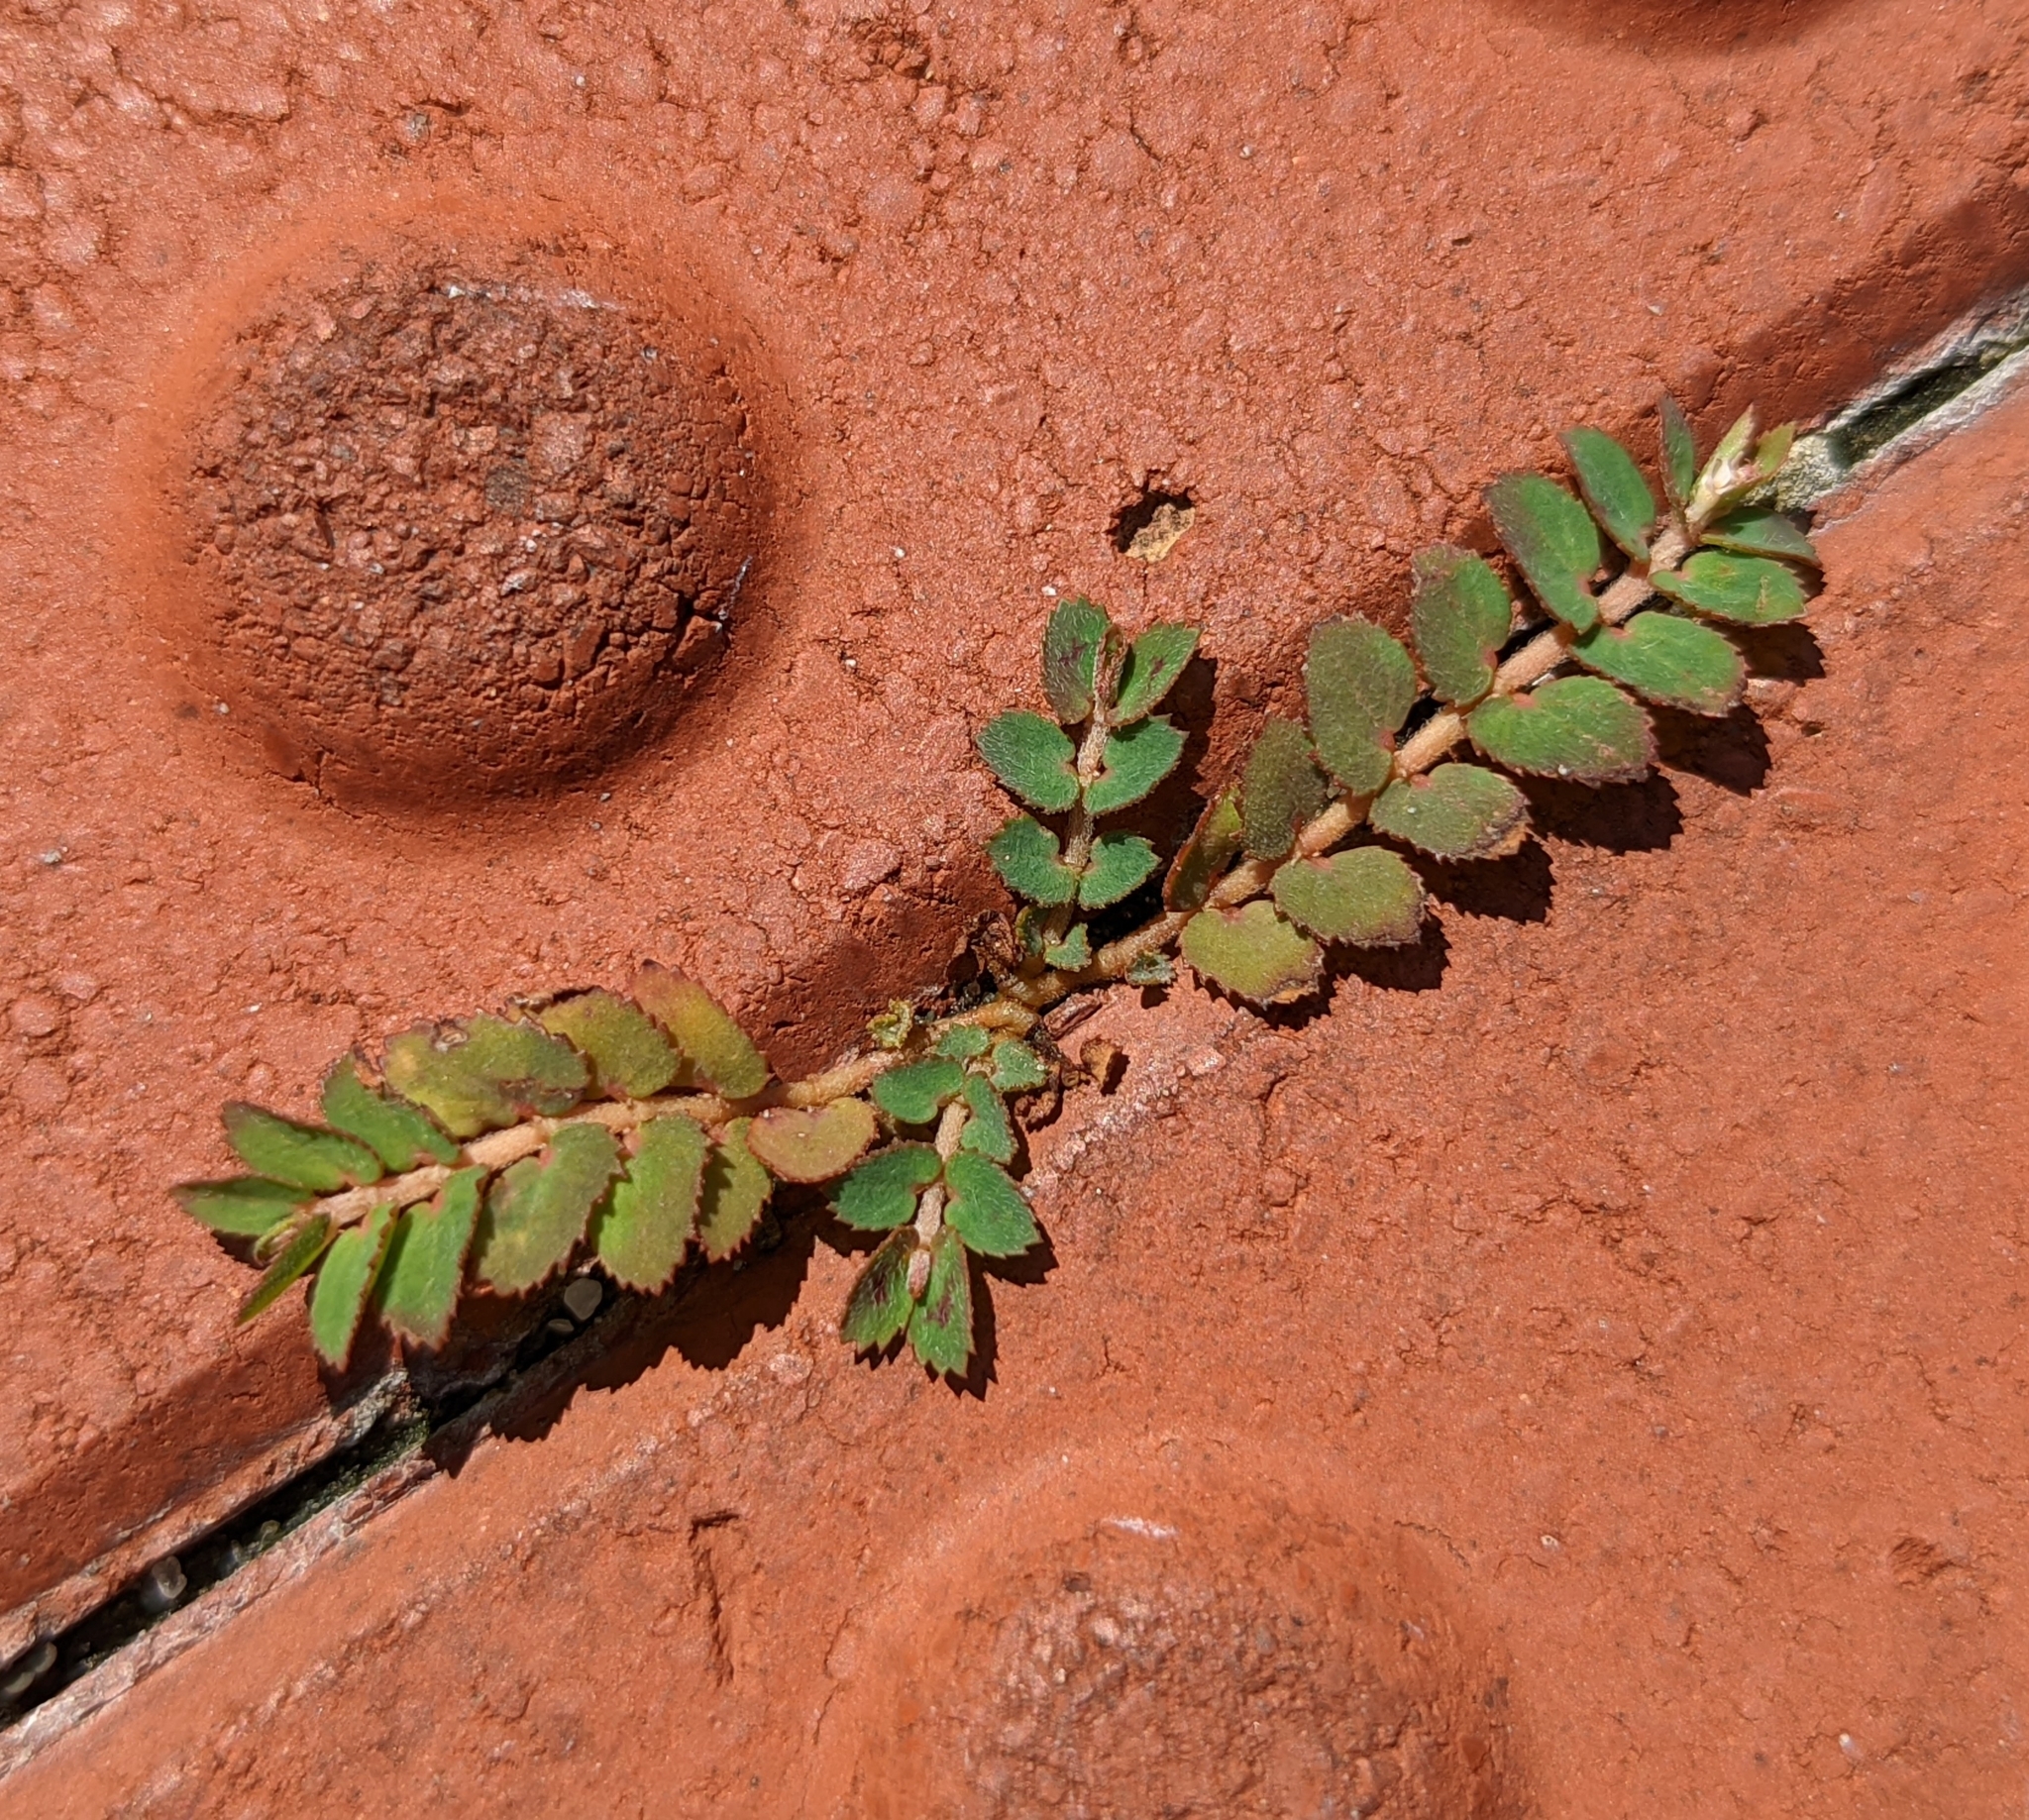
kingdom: Plantae
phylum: Tracheophyta
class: Magnoliopsida
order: Malpighiales
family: Euphorbiaceae
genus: Euphorbia
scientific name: Euphorbia thymifolia
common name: Gulf sandmat
